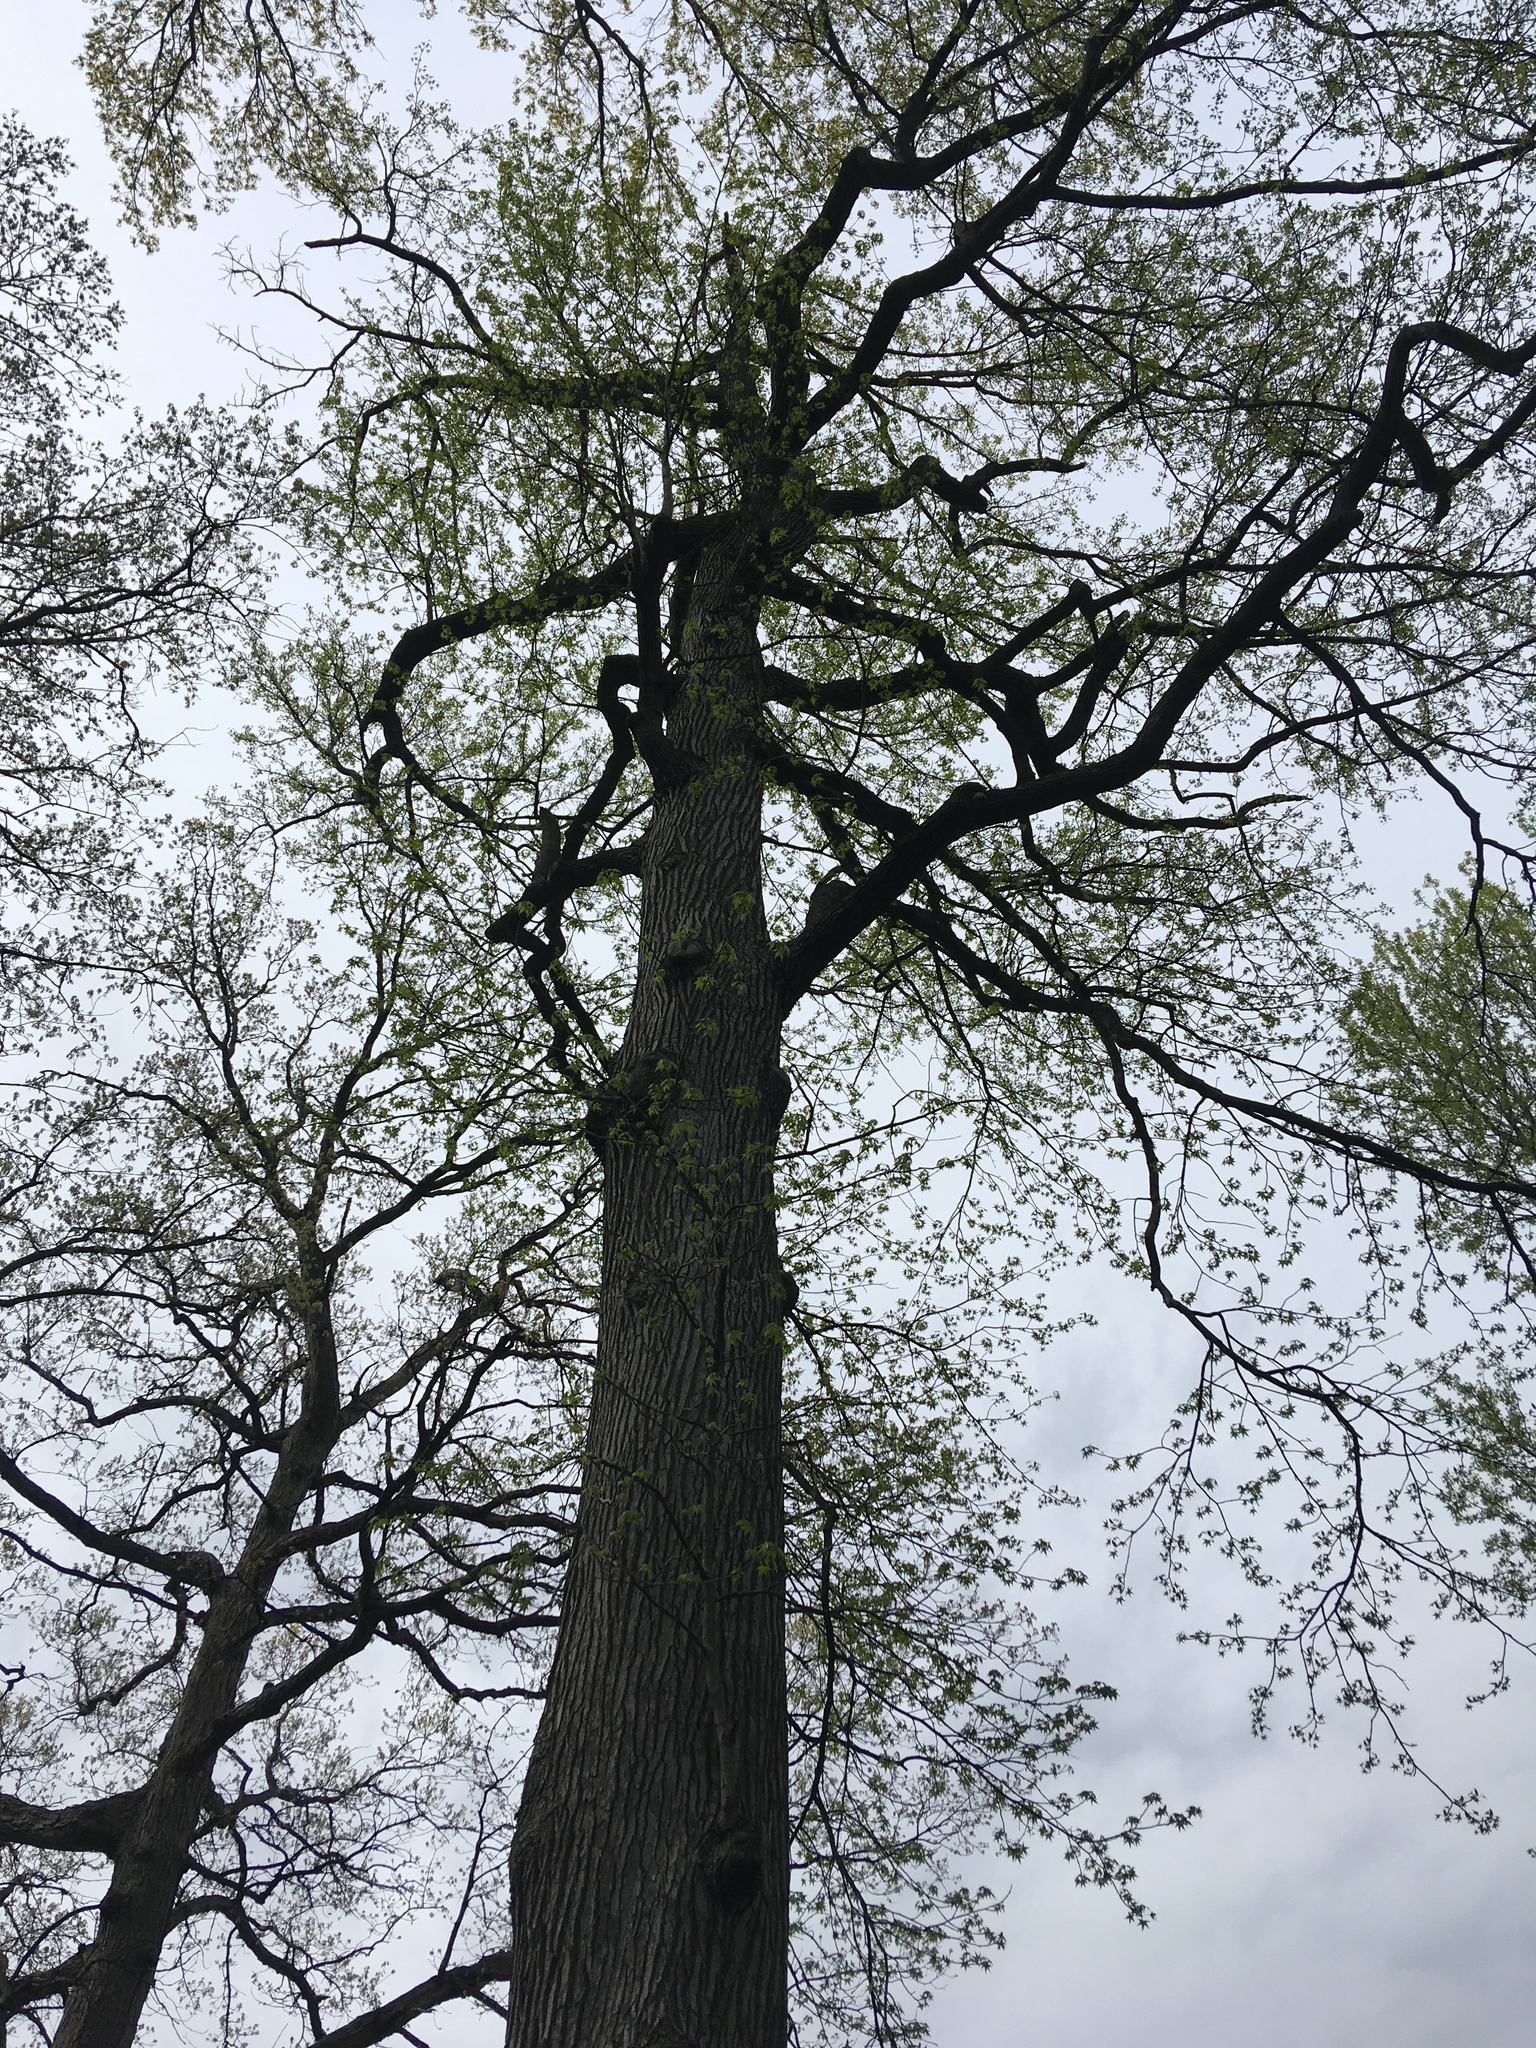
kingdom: Plantae
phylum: Tracheophyta
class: Magnoliopsida
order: Saxifragales
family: Altingiaceae
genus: Liquidambar
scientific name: Liquidambar styraciflua
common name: Sweet gum
